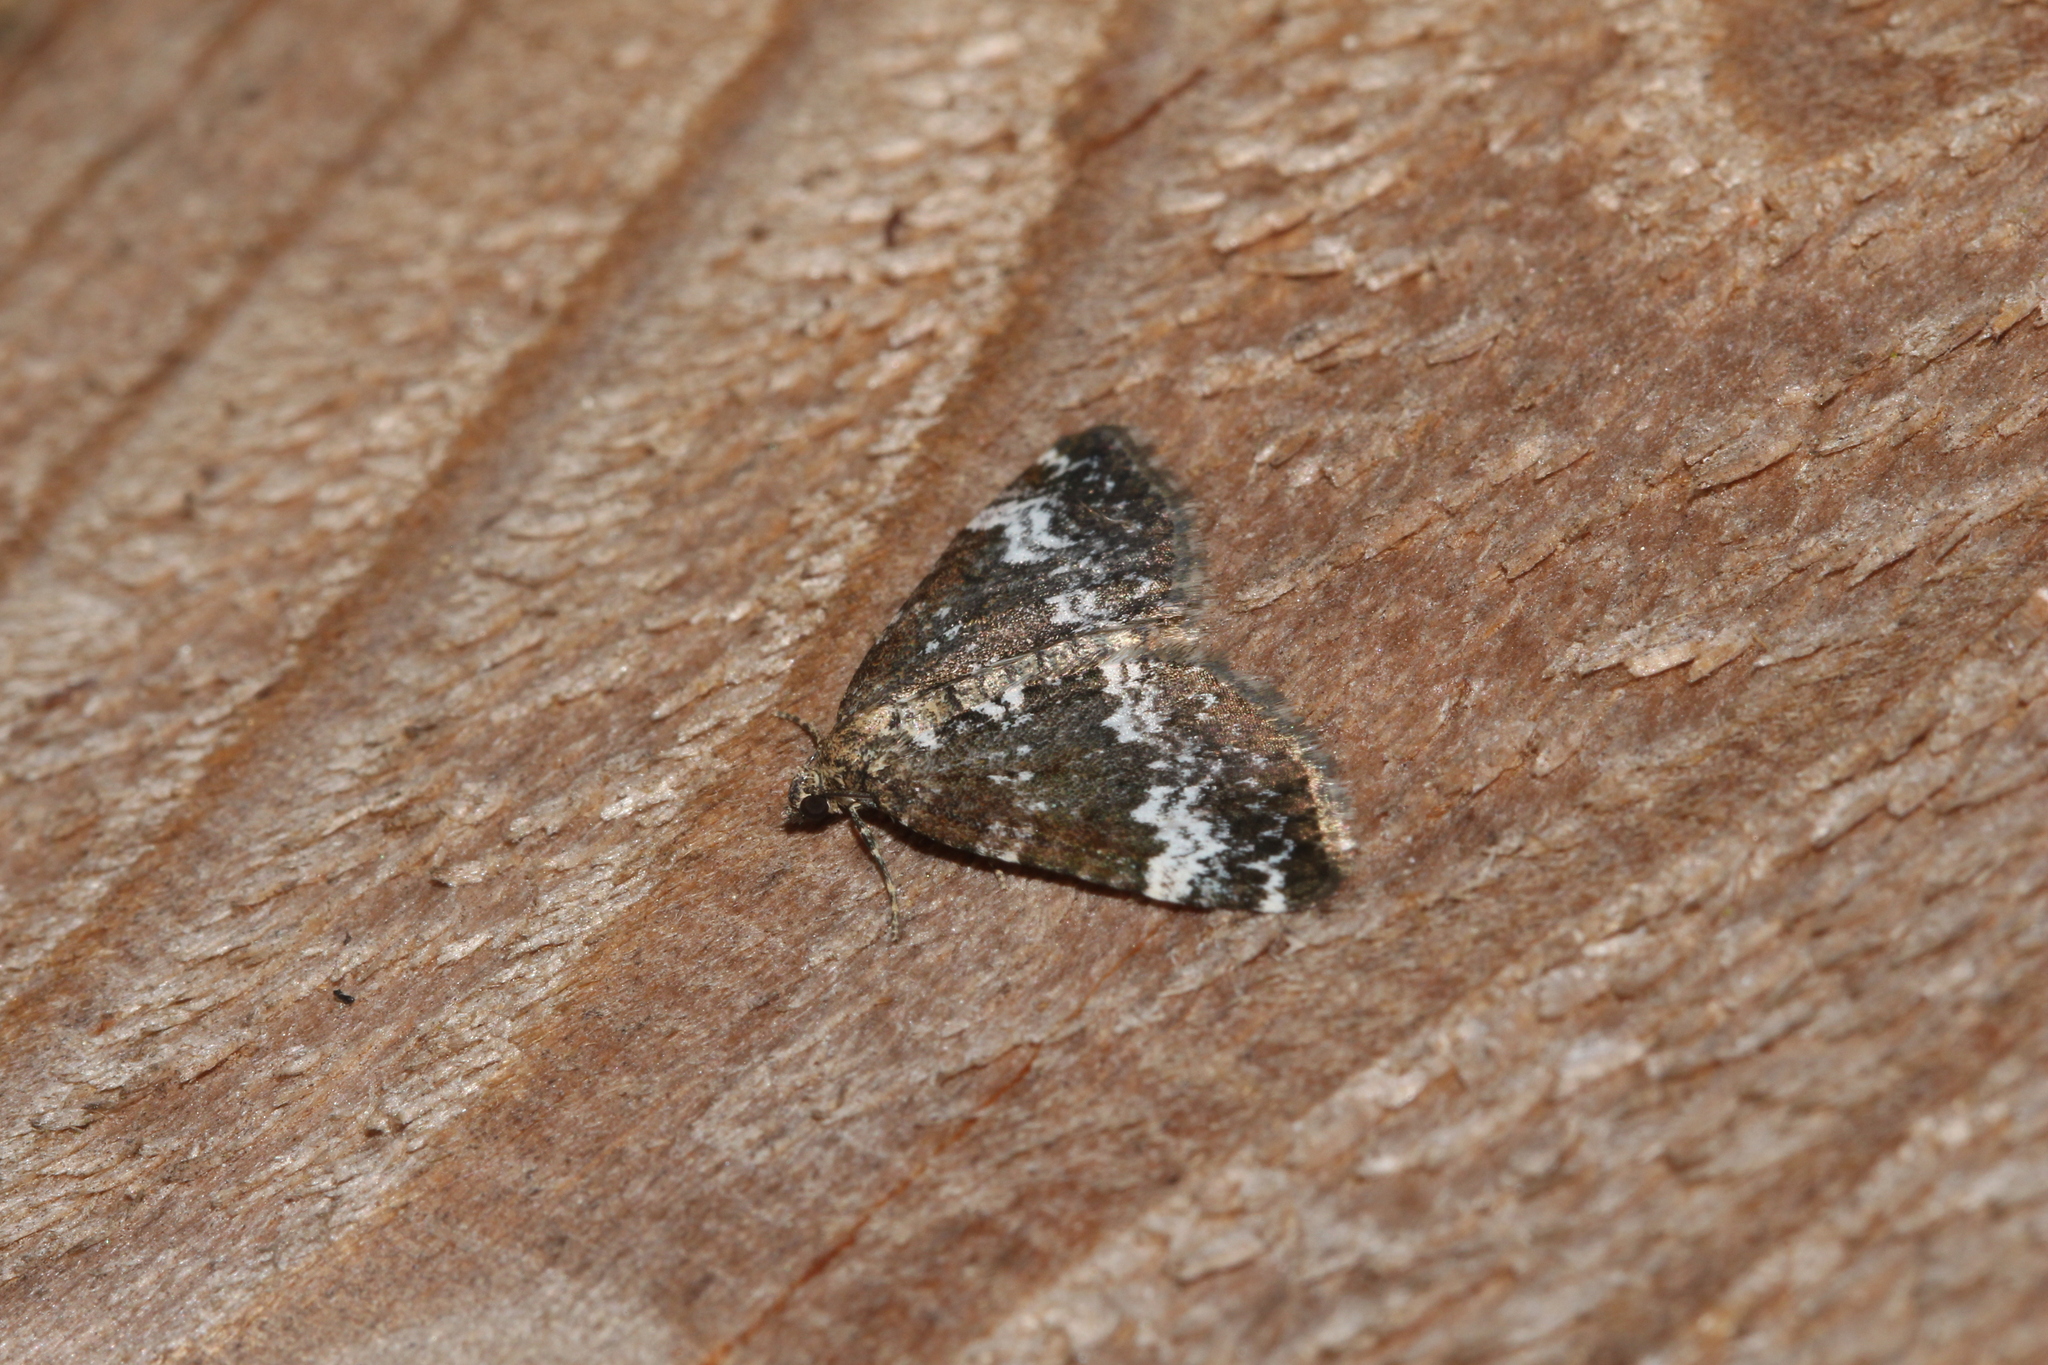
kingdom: Animalia
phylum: Arthropoda
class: Insecta
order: Lepidoptera
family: Geometridae
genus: Perizoma
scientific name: Perizoma alchemillata
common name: Small rivulet
